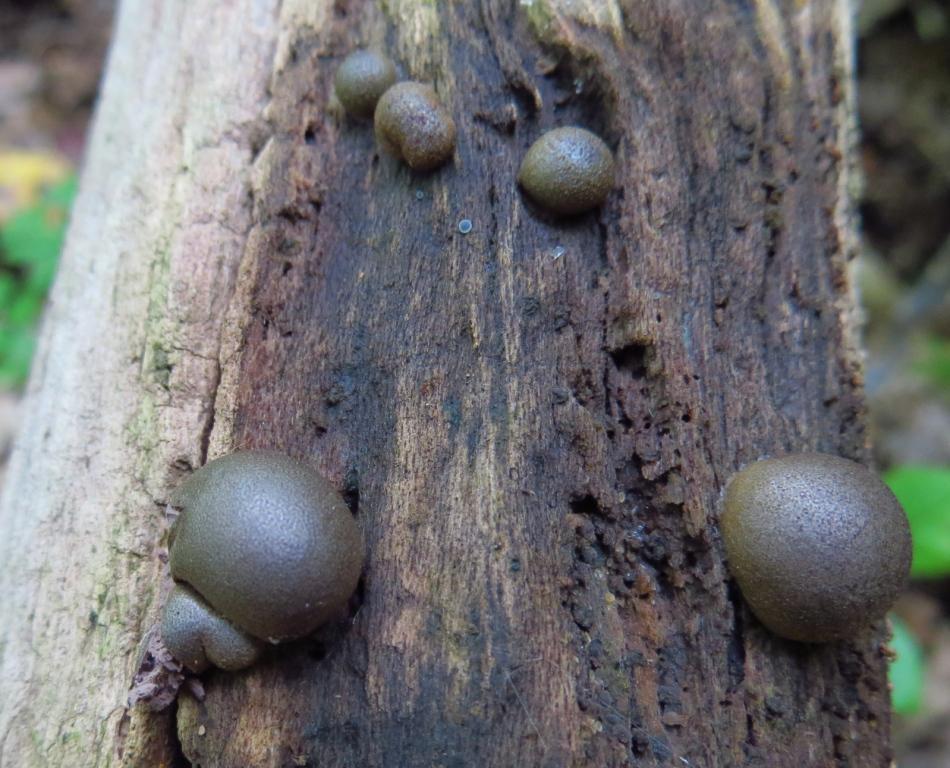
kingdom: Protozoa
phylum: Mycetozoa
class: Myxomycetes
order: Cribrariales
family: Tubiferaceae
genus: Lycogala
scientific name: Lycogala epidendrum
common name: Wolf's milk
